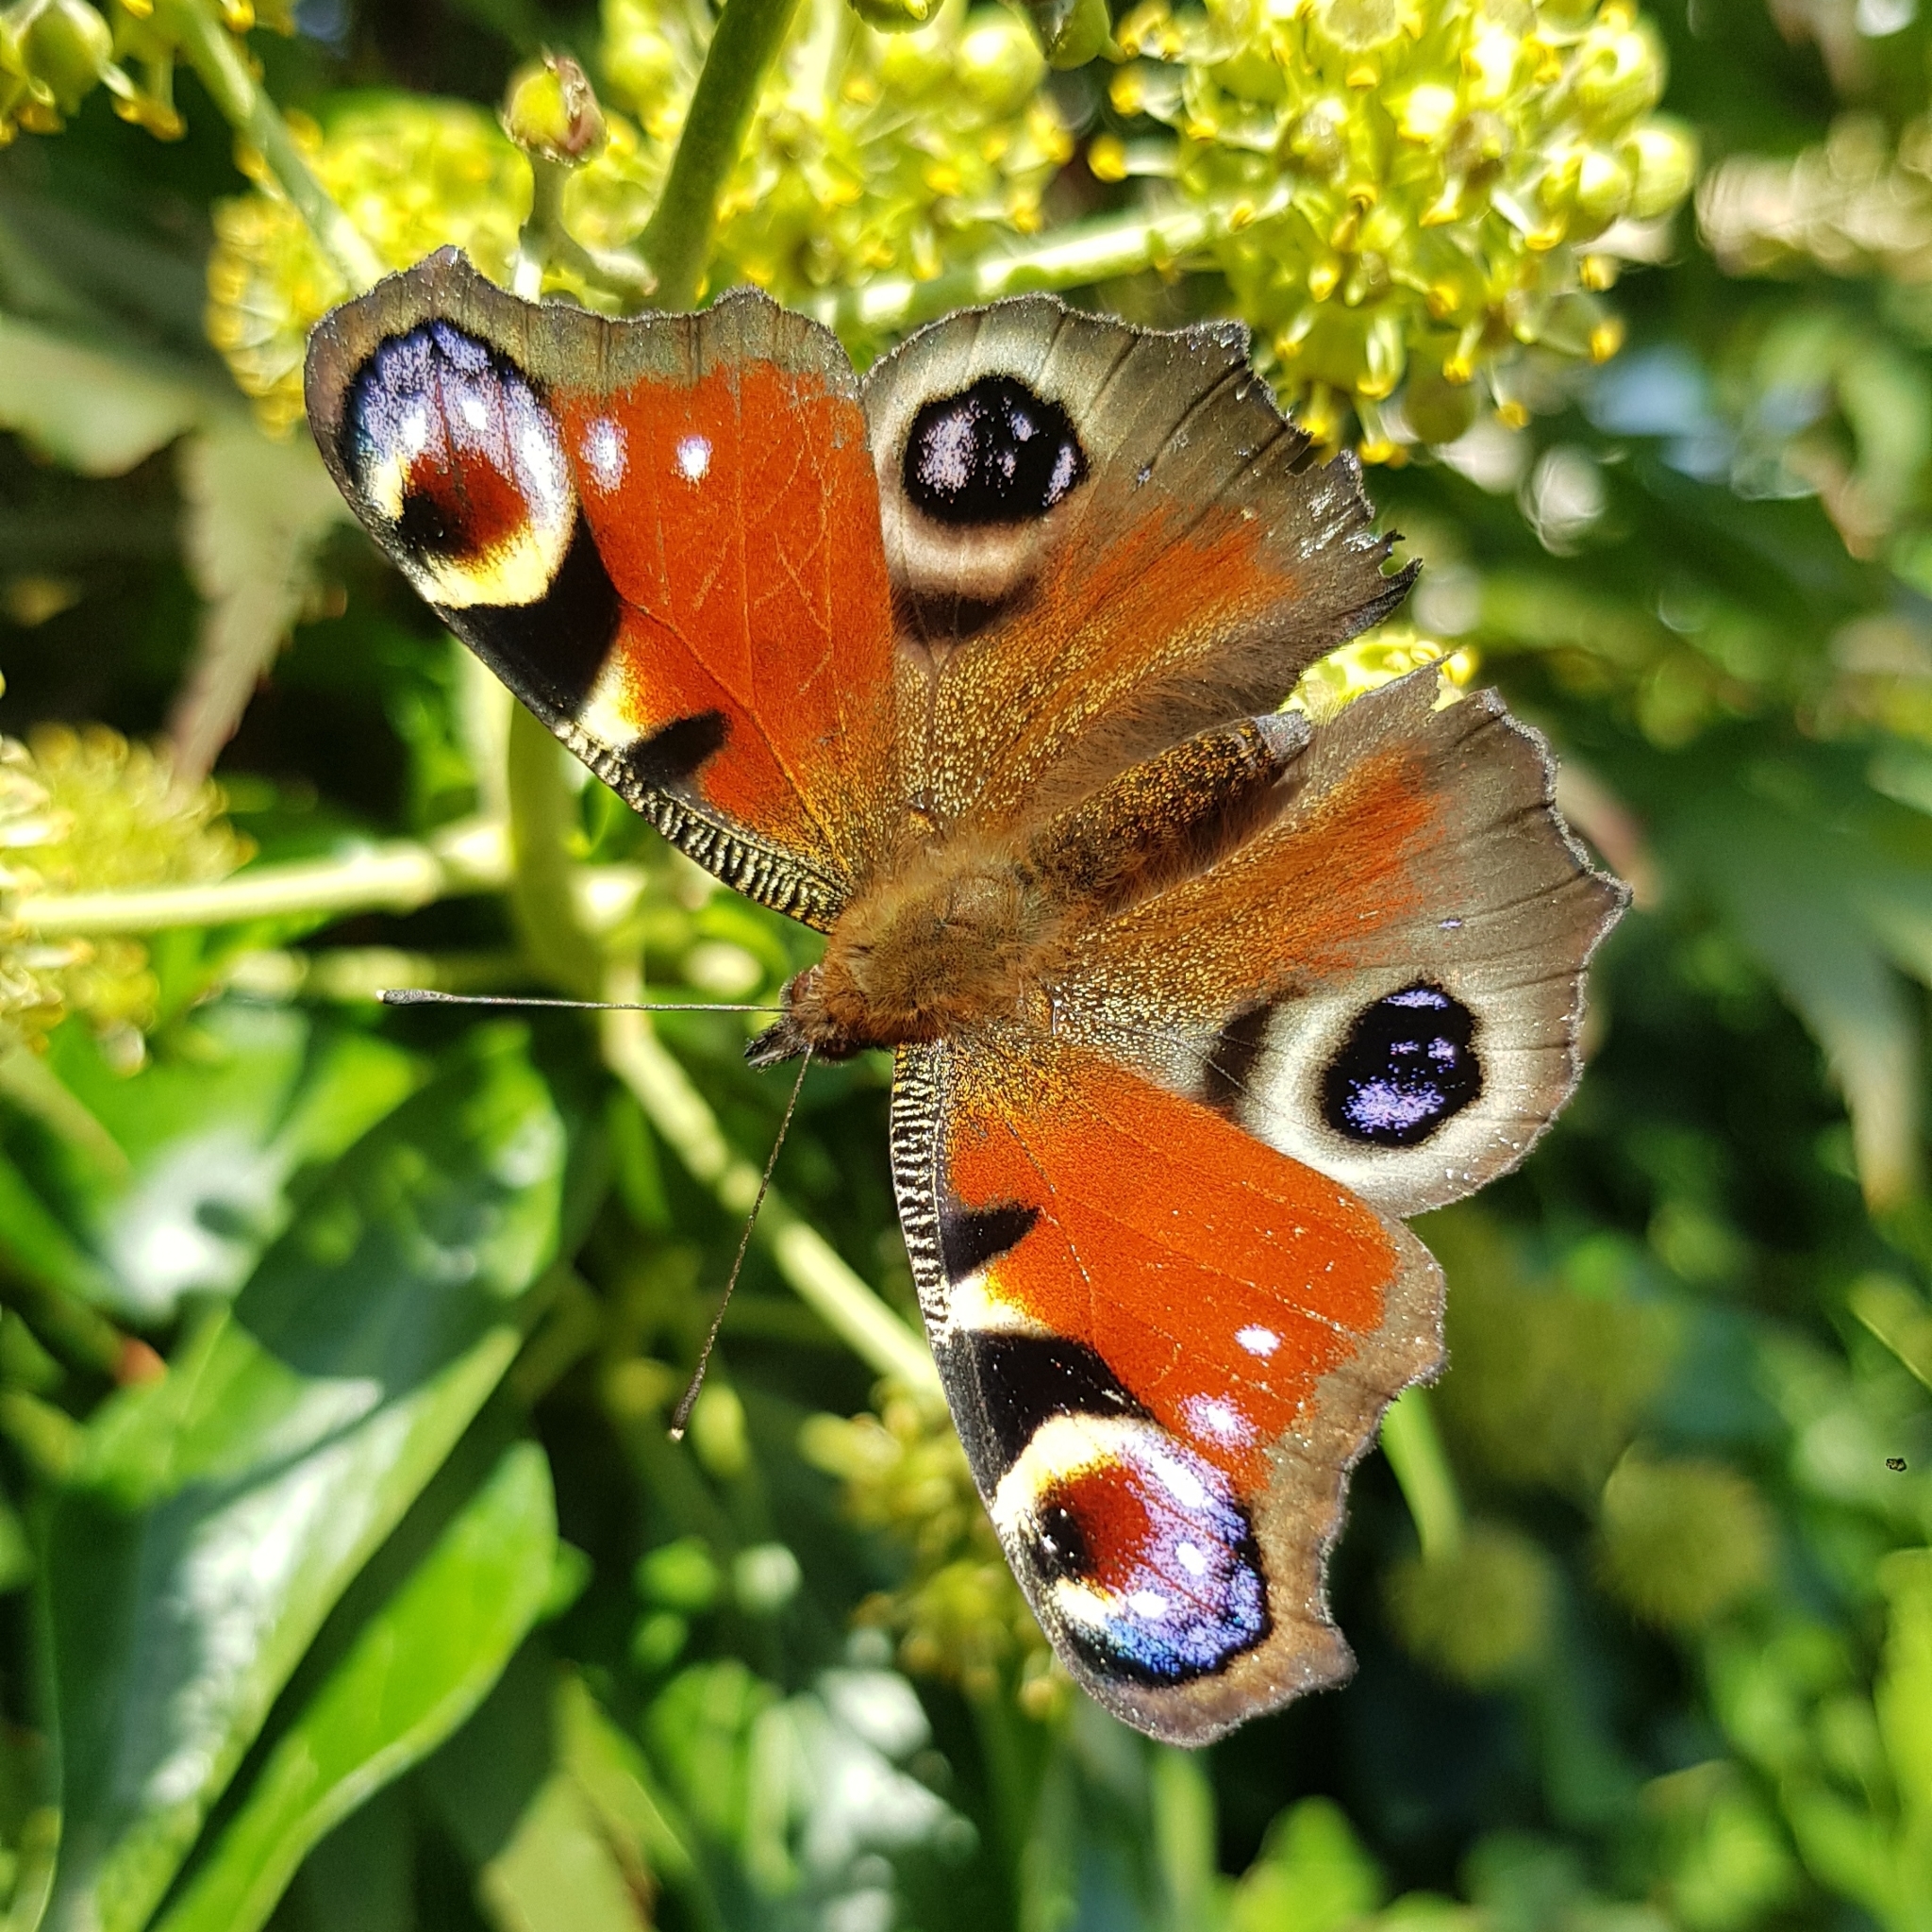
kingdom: Animalia
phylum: Arthropoda
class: Insecta
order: Lepidoptera
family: Nymphalidae
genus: Aglais
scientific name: Aglais io
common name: Peacock
